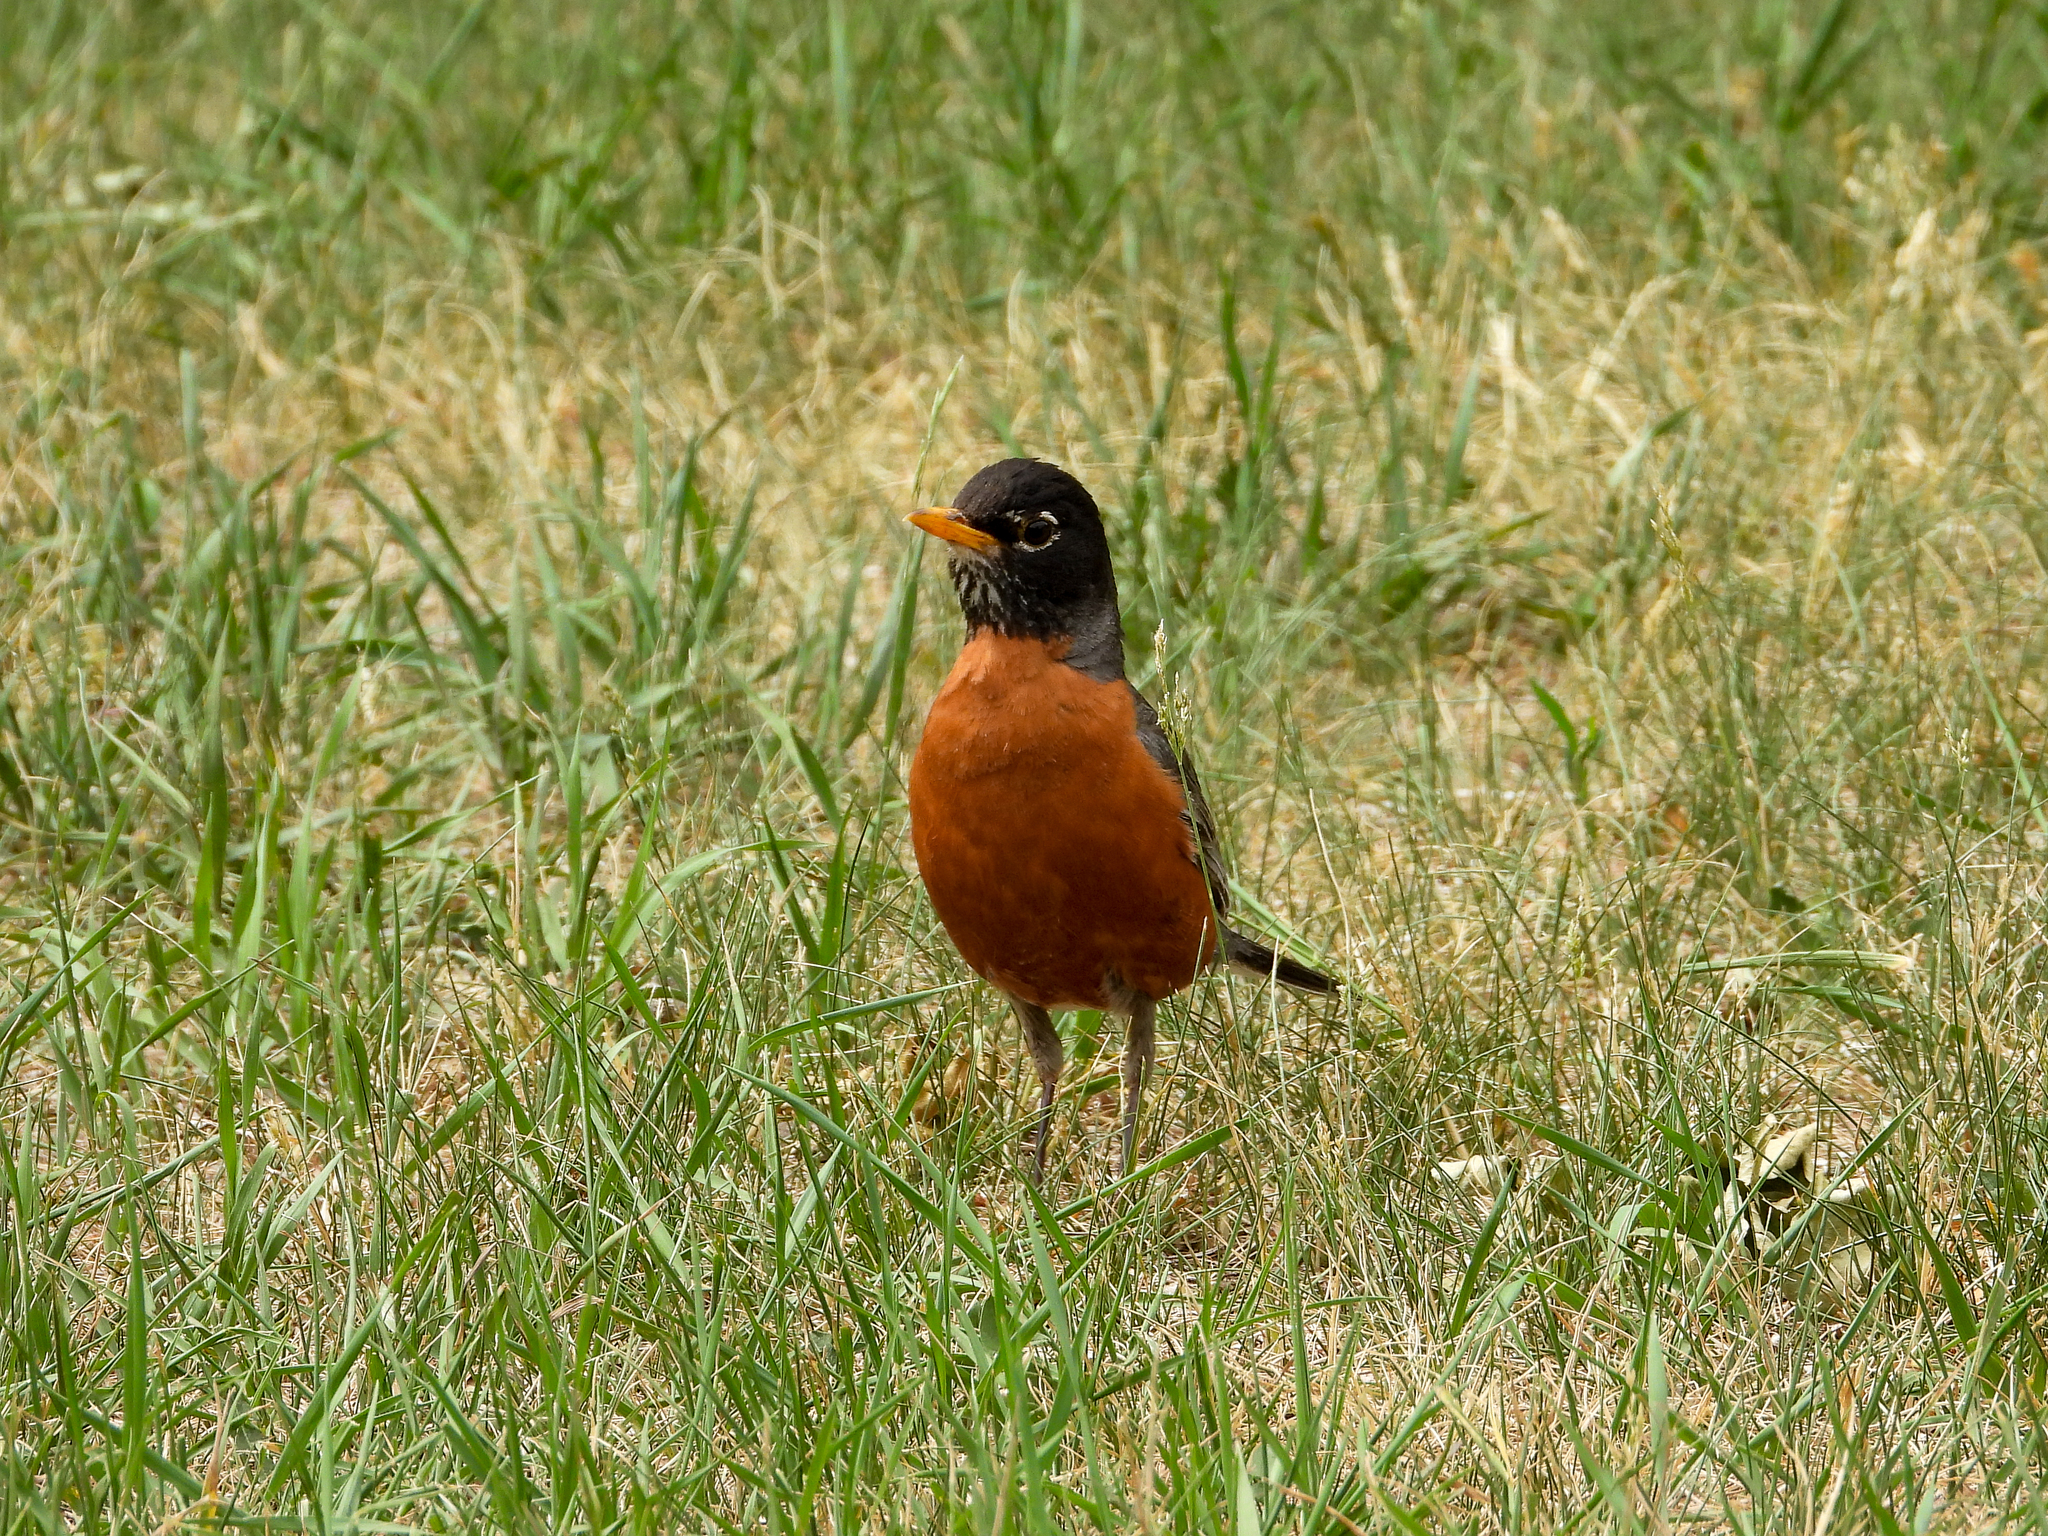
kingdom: Animalia
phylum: Chordata
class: Aves
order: Passeriformes
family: Turdidae
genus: Turdus
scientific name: Turdus migratorius
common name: American robin
